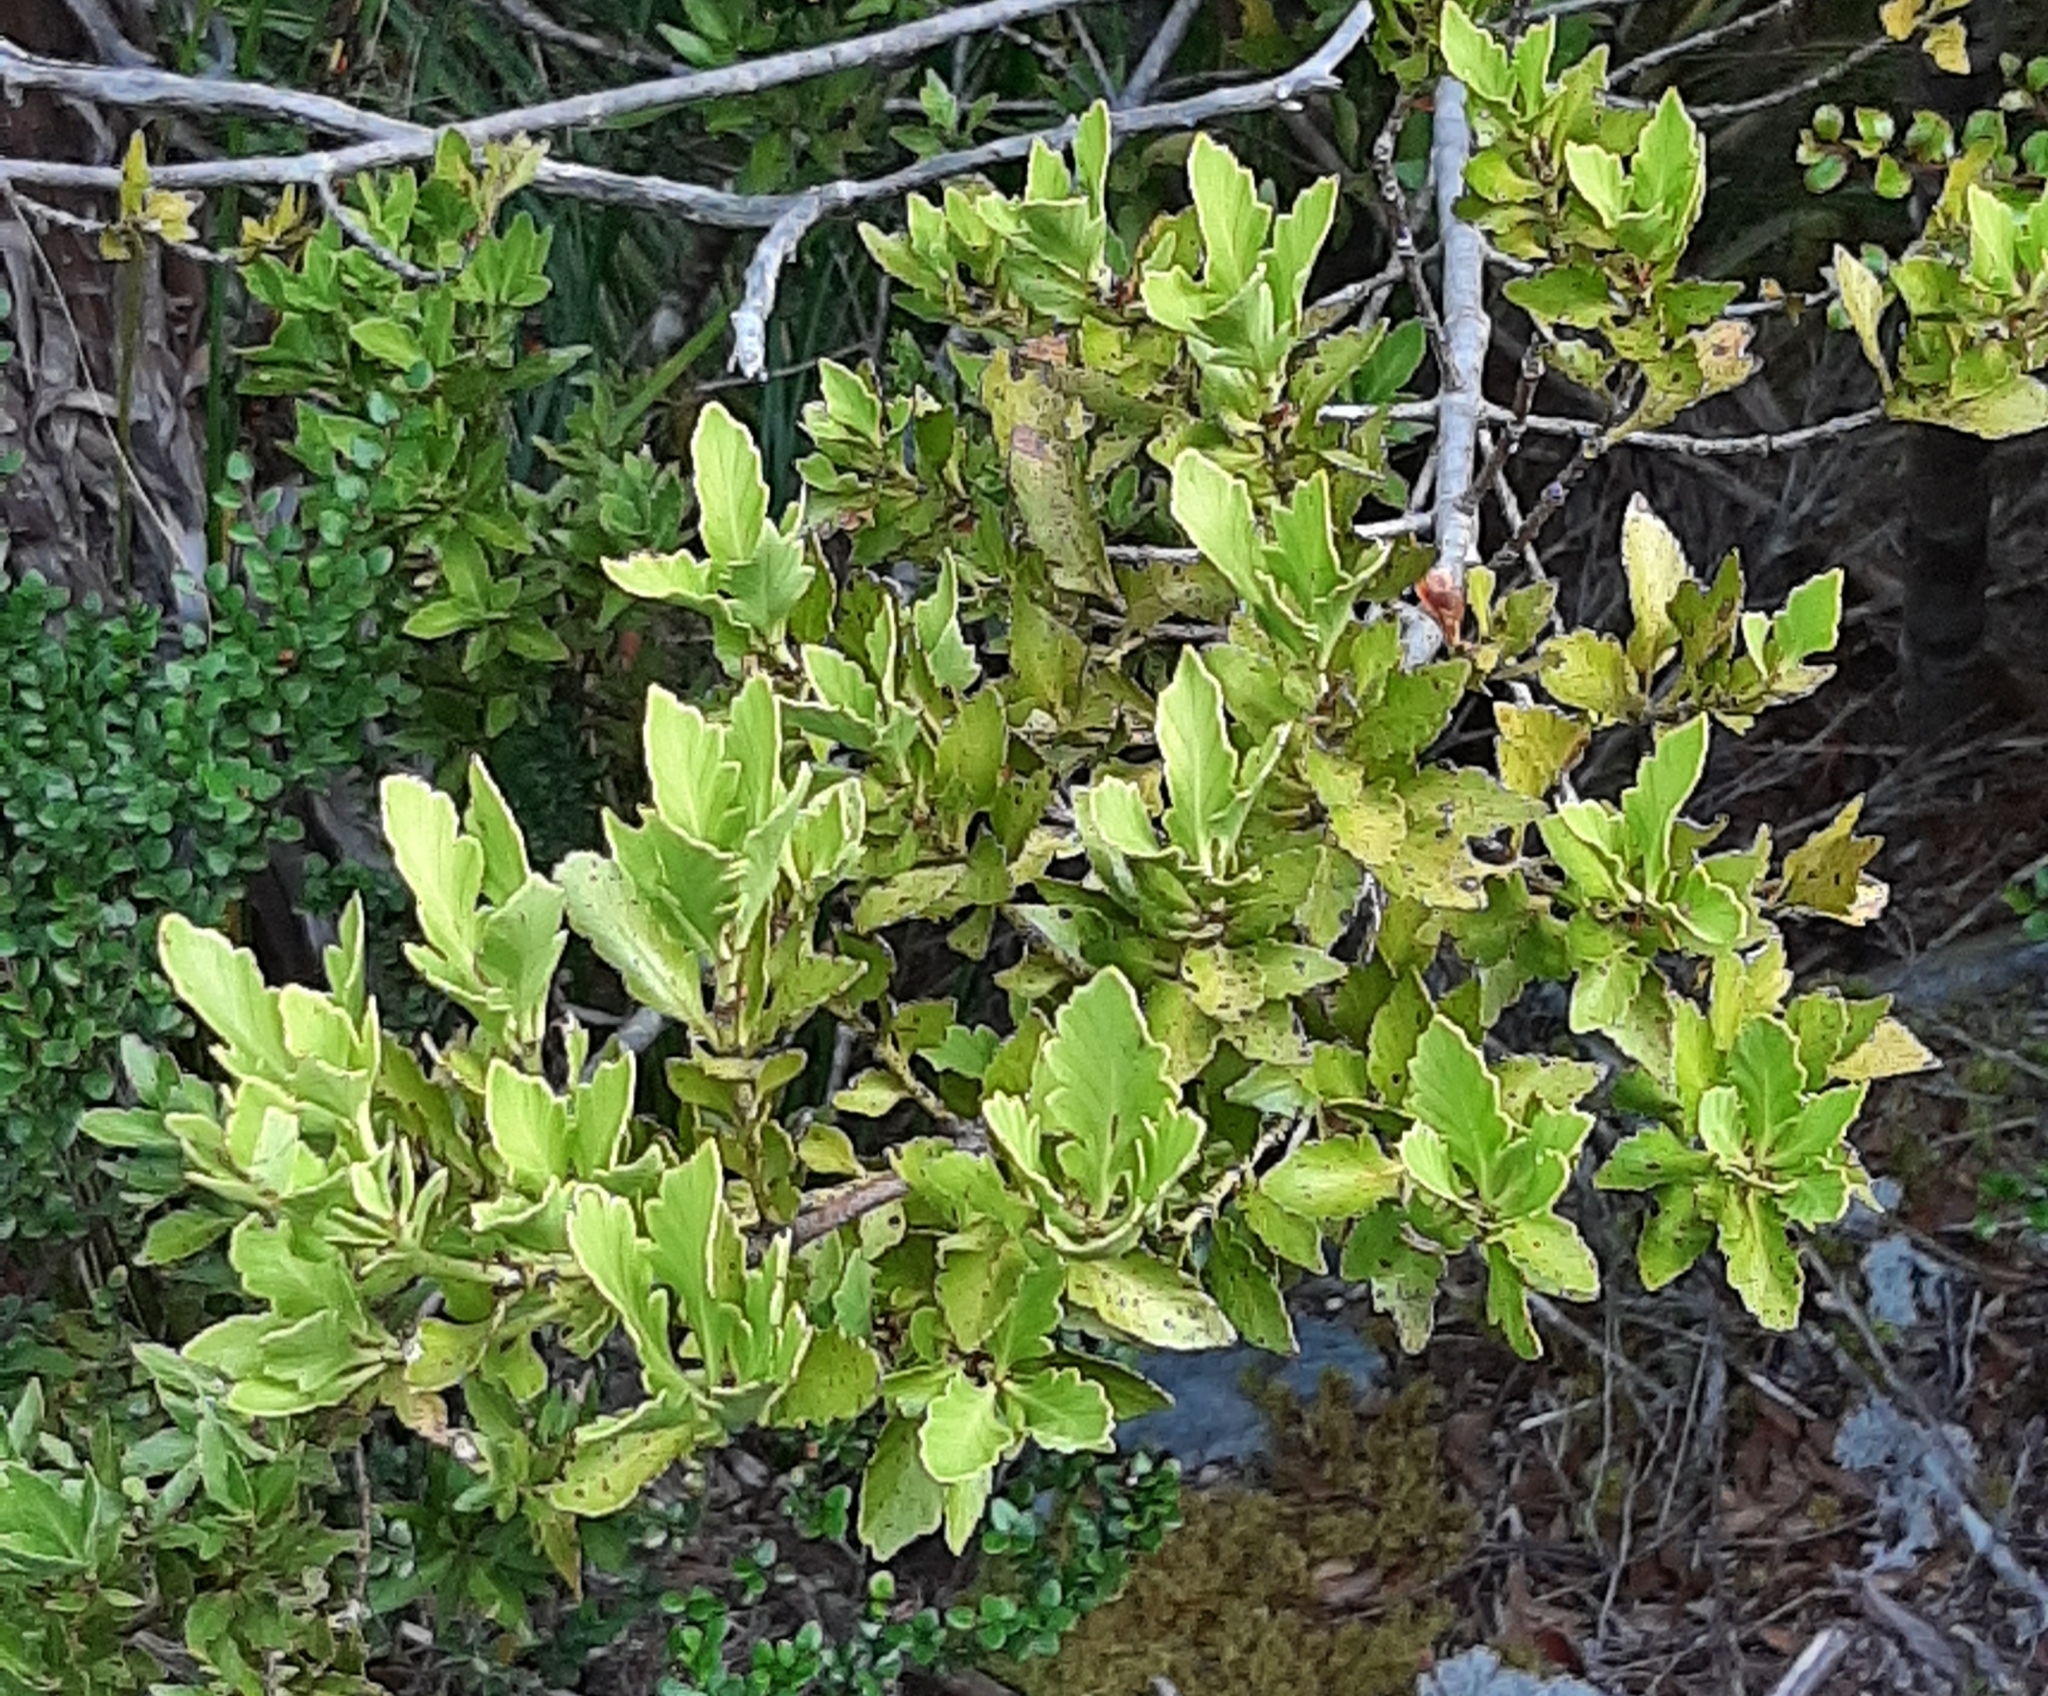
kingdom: Plantae
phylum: Tracheophyta
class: Pinopsida
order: Pinales
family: Phyllocladaceae
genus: Phyllocladus
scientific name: Phyllocladus trichomanoides
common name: Celery pine
